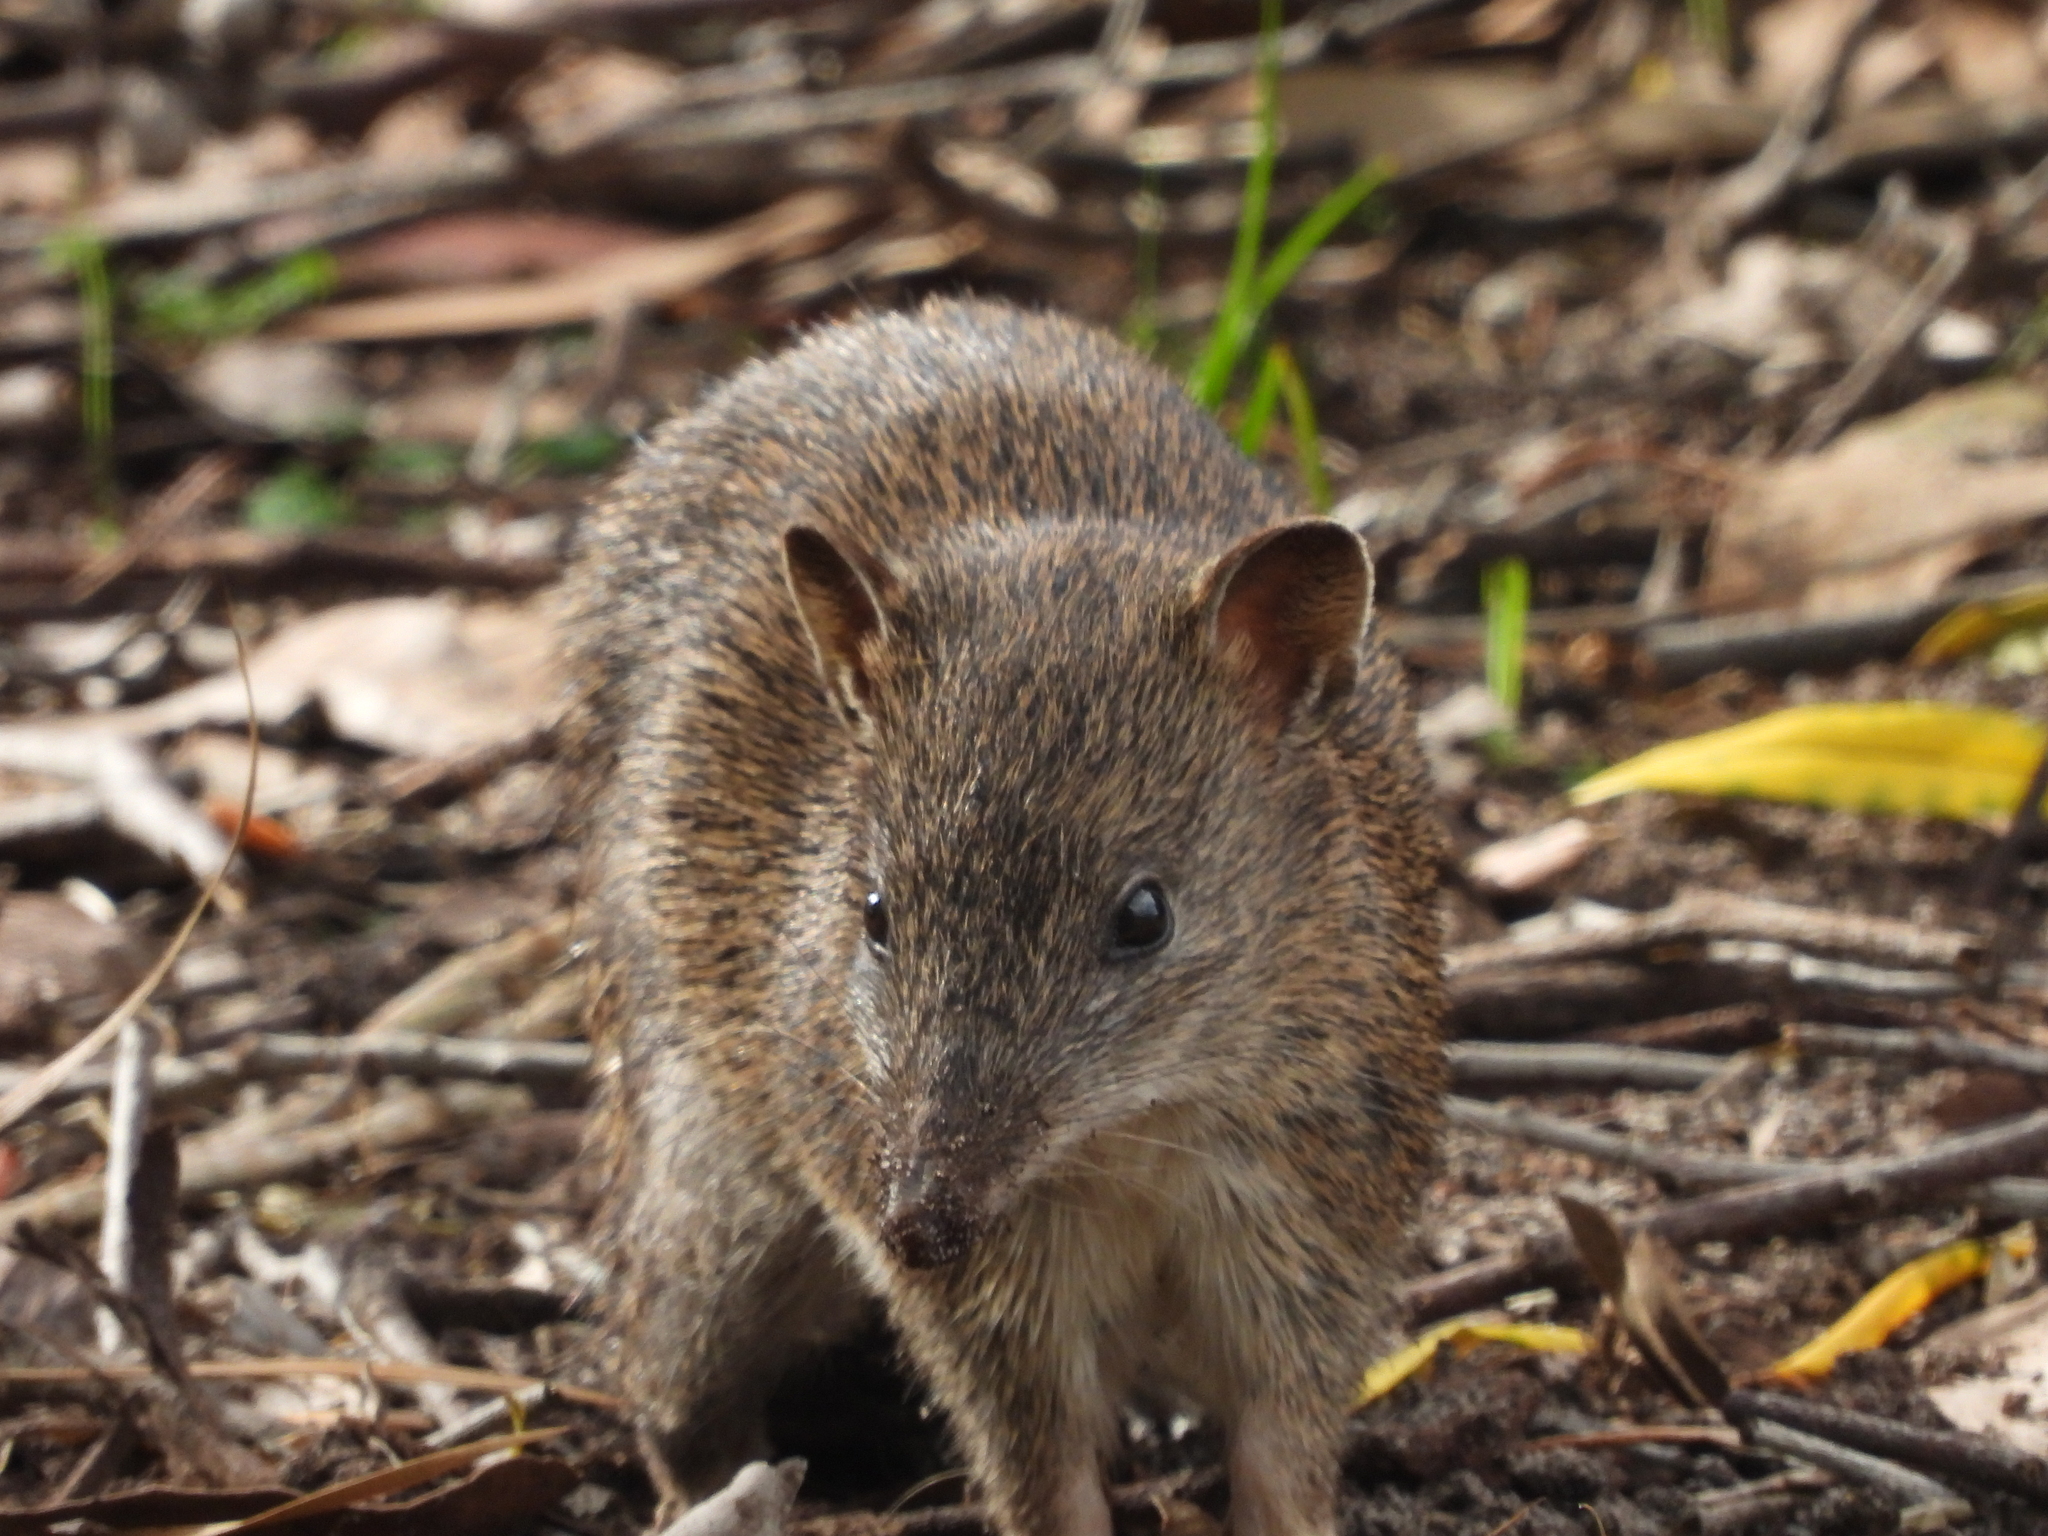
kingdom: Animalia
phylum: Chordata
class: Mammalia
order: Peramelemorphia
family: Peramelidae
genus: Isoodon
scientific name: Isoodon obesulus
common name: Southern brown bandicoot
